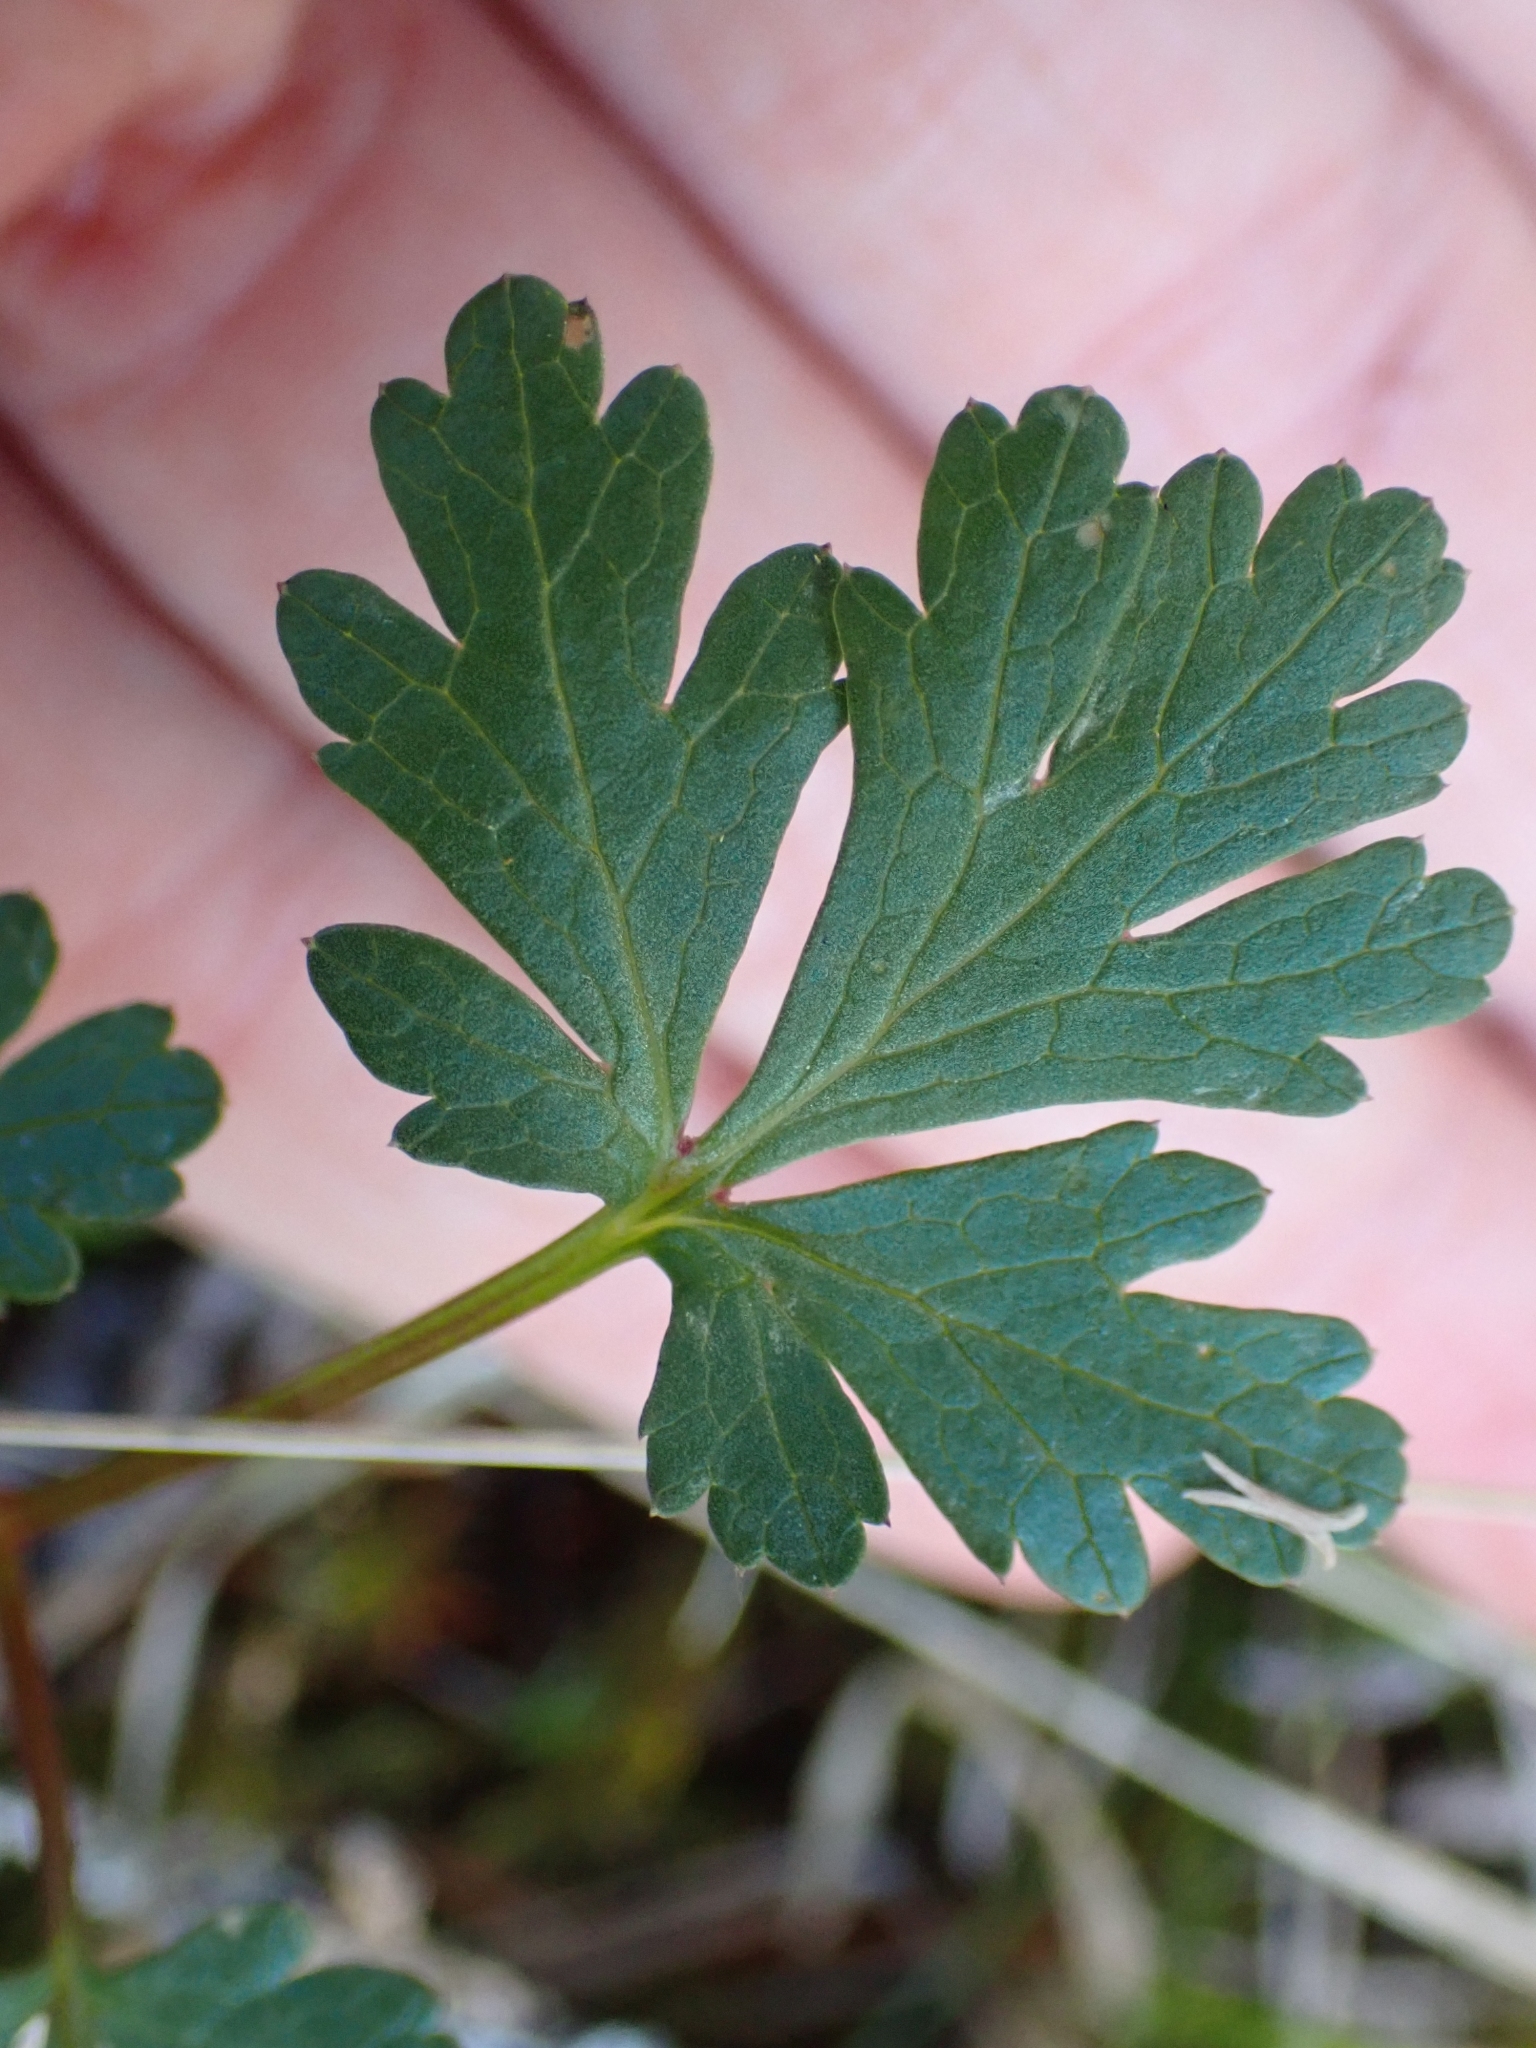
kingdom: Plantae
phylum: Tracheophyta
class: Magnoliopsida
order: Apiales
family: Apiaceae
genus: Sanicula
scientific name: Sanicula graveolens
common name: Sierra sanicle
